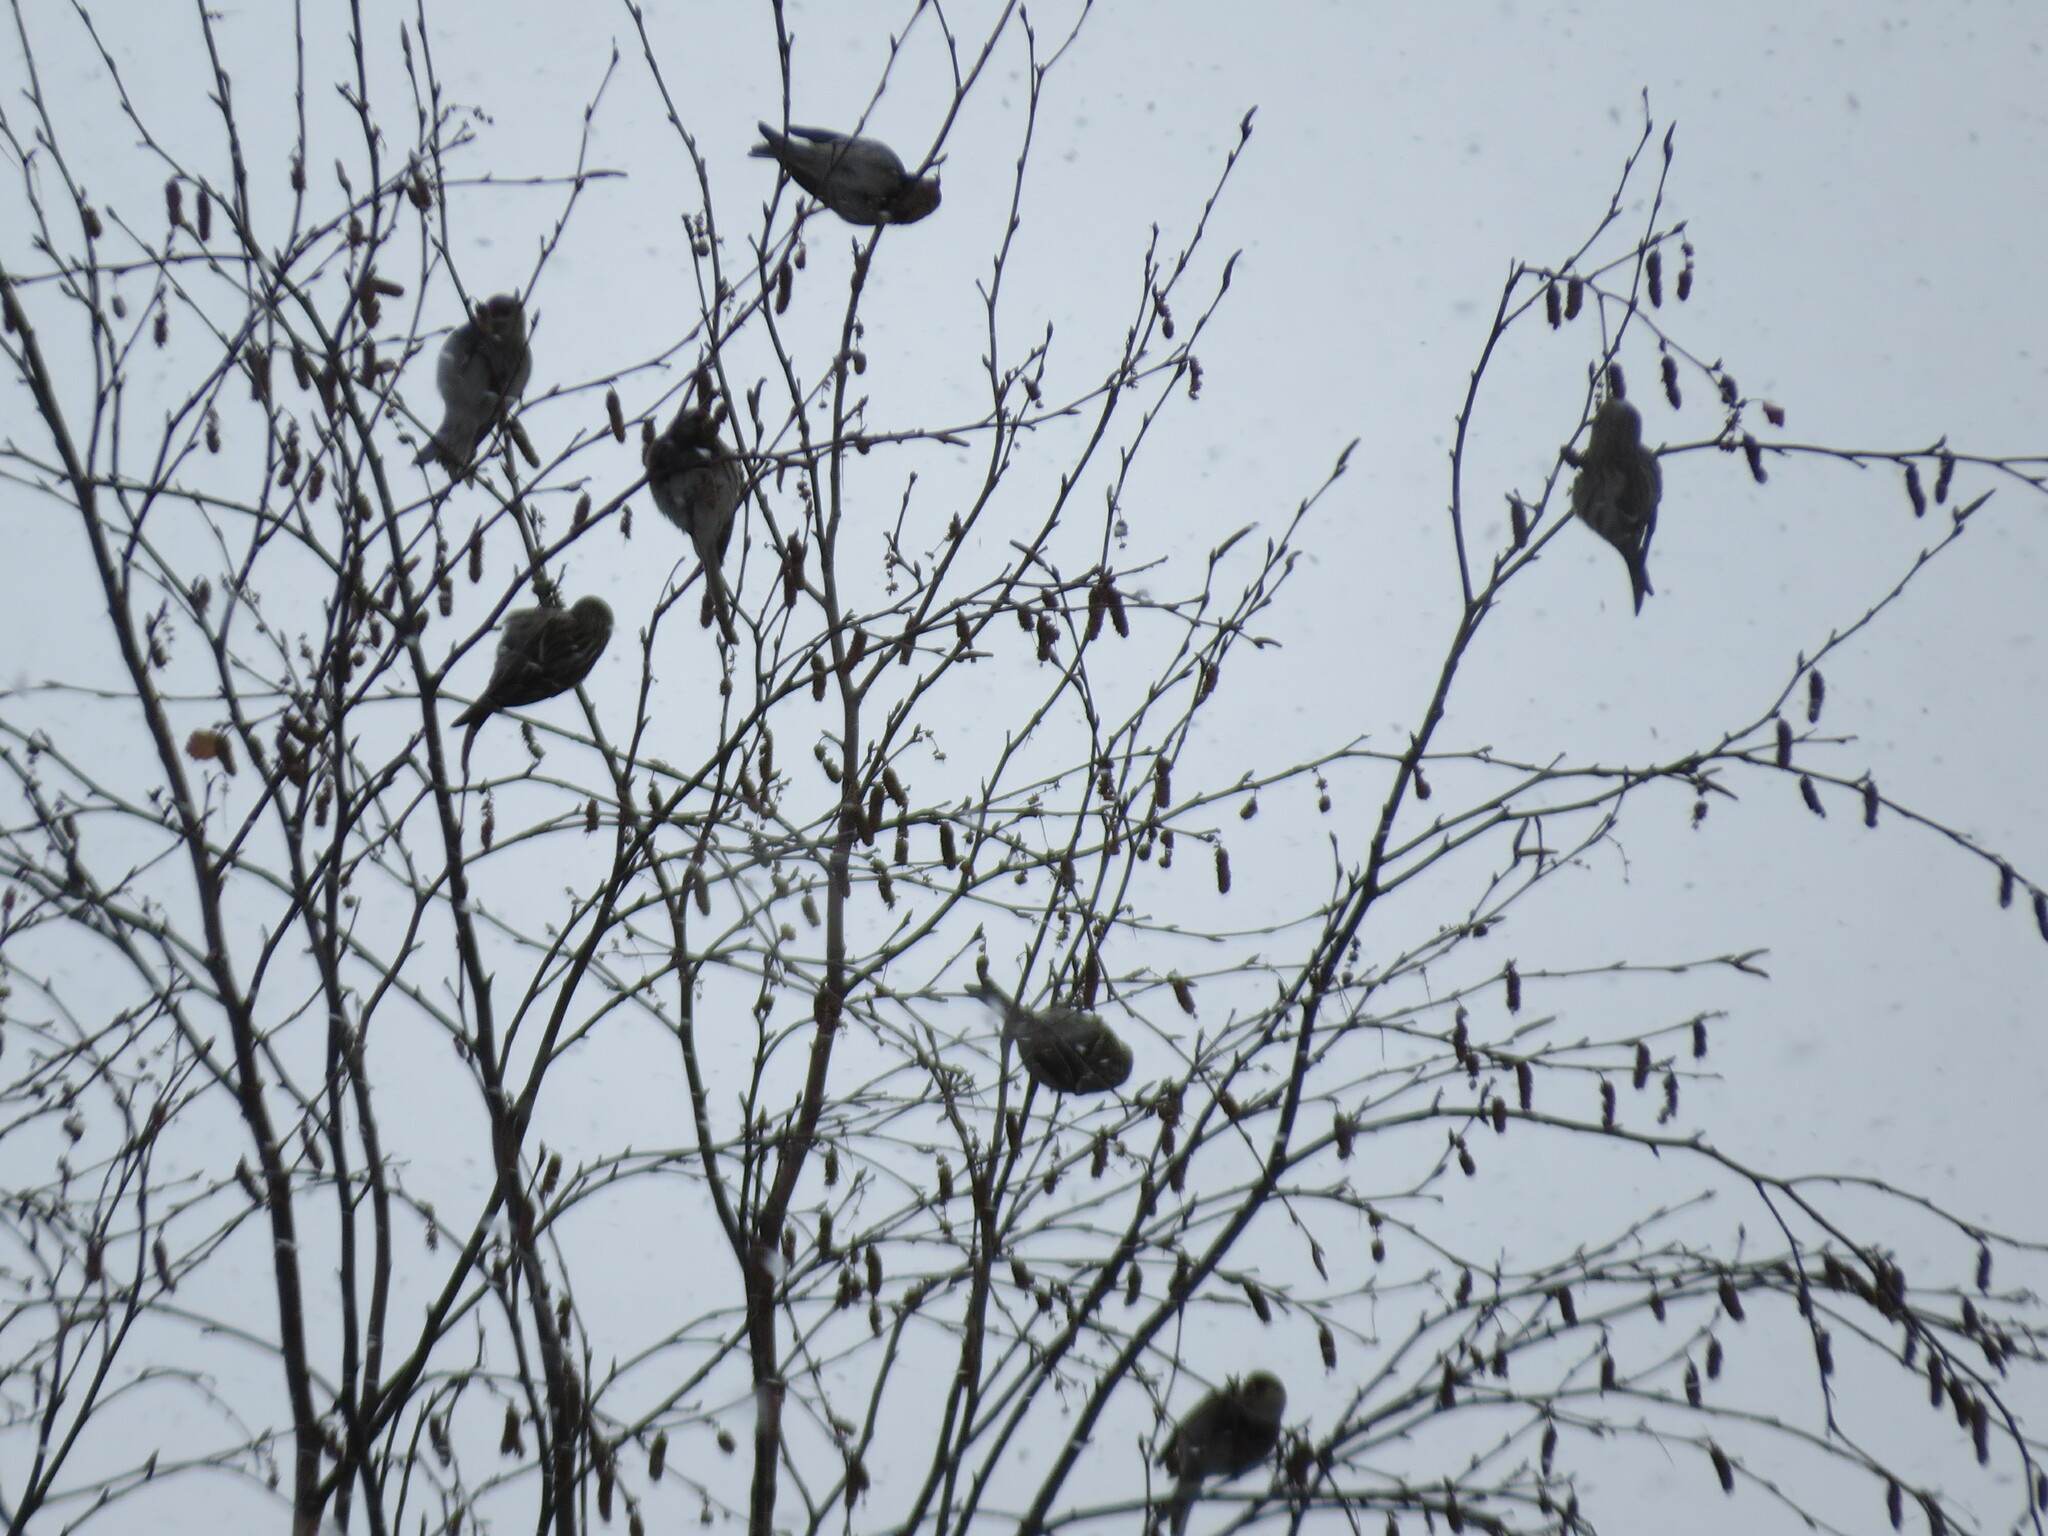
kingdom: Animalia
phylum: Chordata
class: Aves
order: Passeriformes
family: Fringillidae
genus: Acanthis
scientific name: Acanthis flammea
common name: Common redpoll
